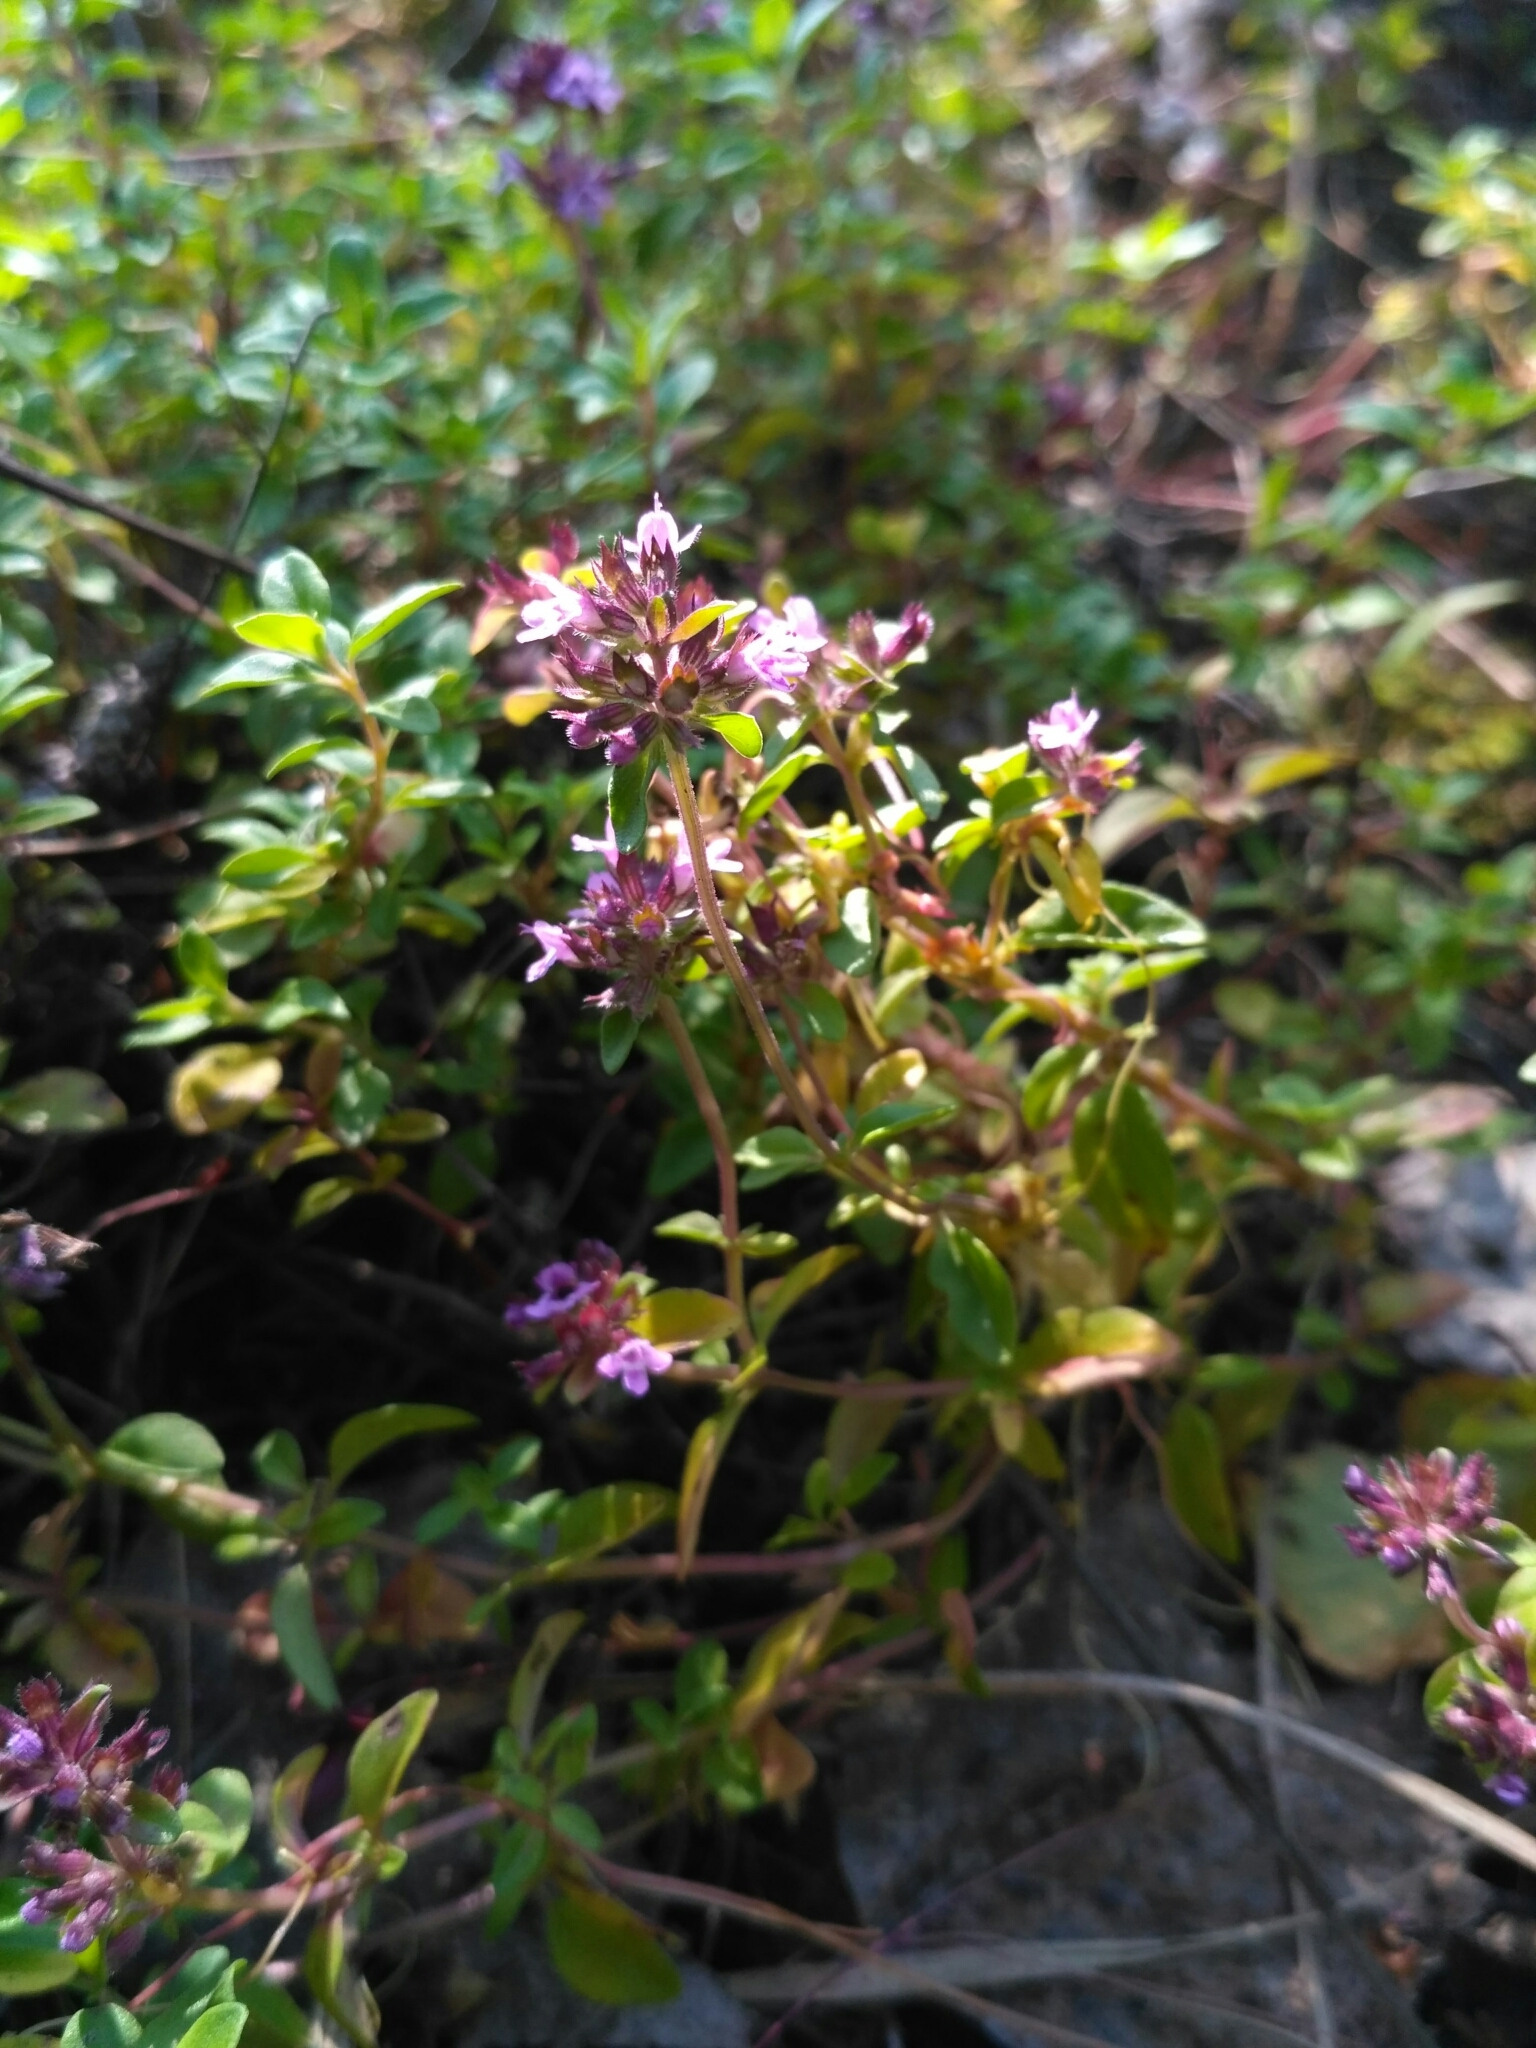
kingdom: Plantae
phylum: Tracheophyta
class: Magnoliopsida
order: Lamiales
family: Lamiaceae
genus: Thymus
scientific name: Thymus pulegioides
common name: Large thyme
